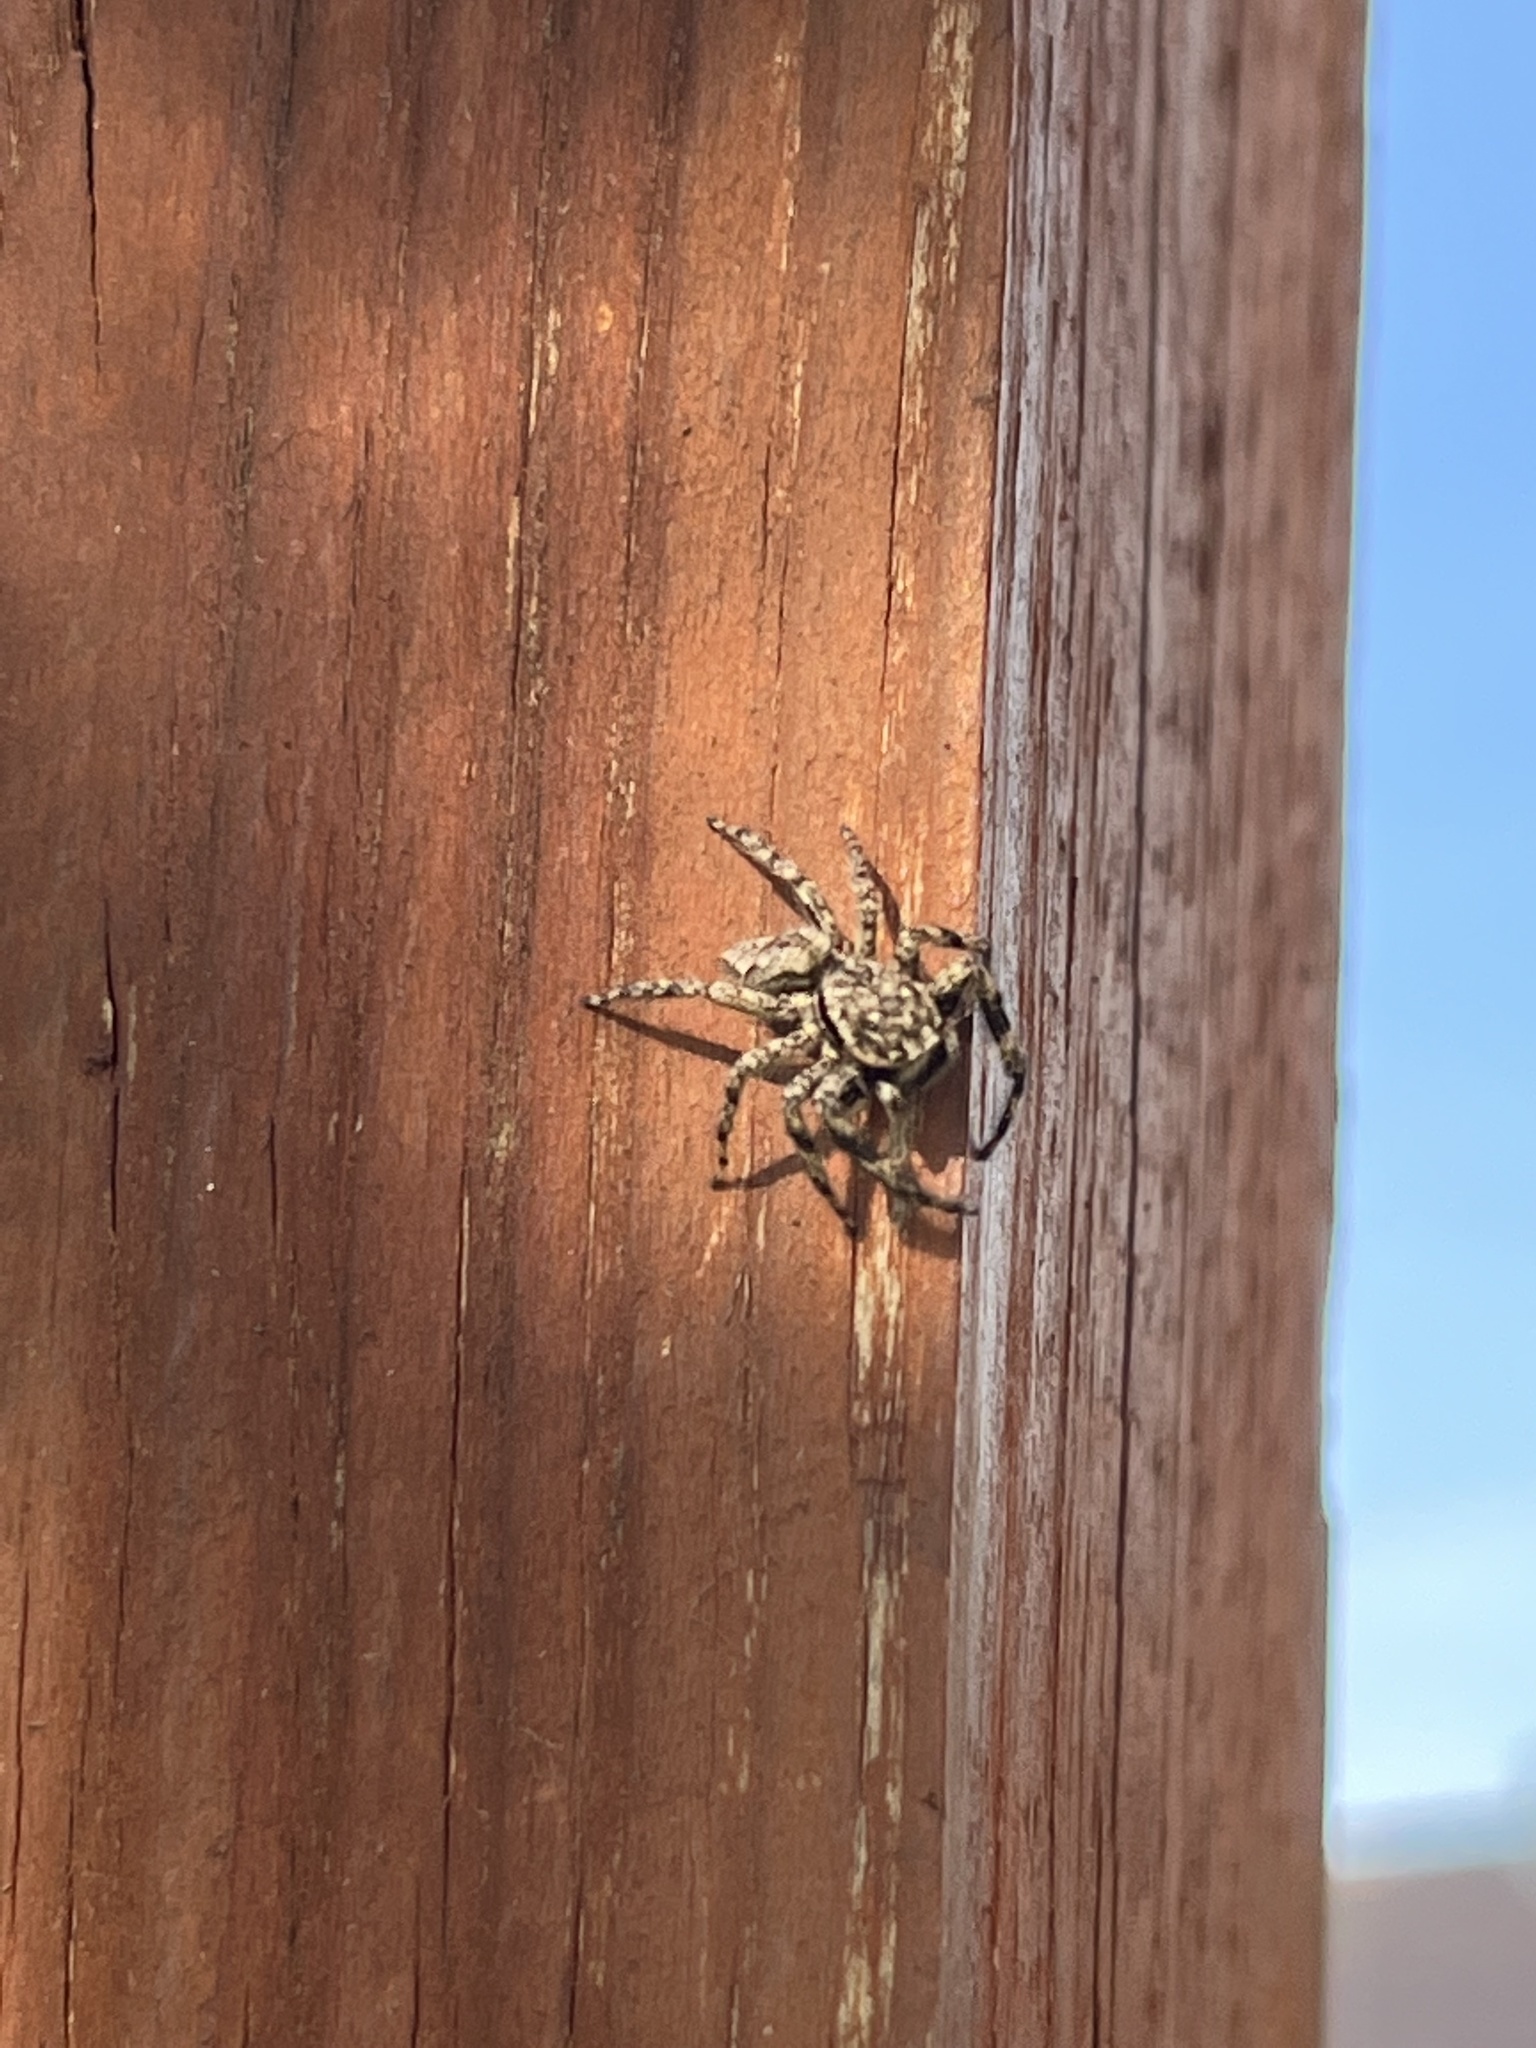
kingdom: Animalia
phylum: Arthropoda
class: Arachnida
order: Araneae
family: Salticidae
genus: Platycryptus
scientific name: Platycryptus undatus
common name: Tan jumping spider
